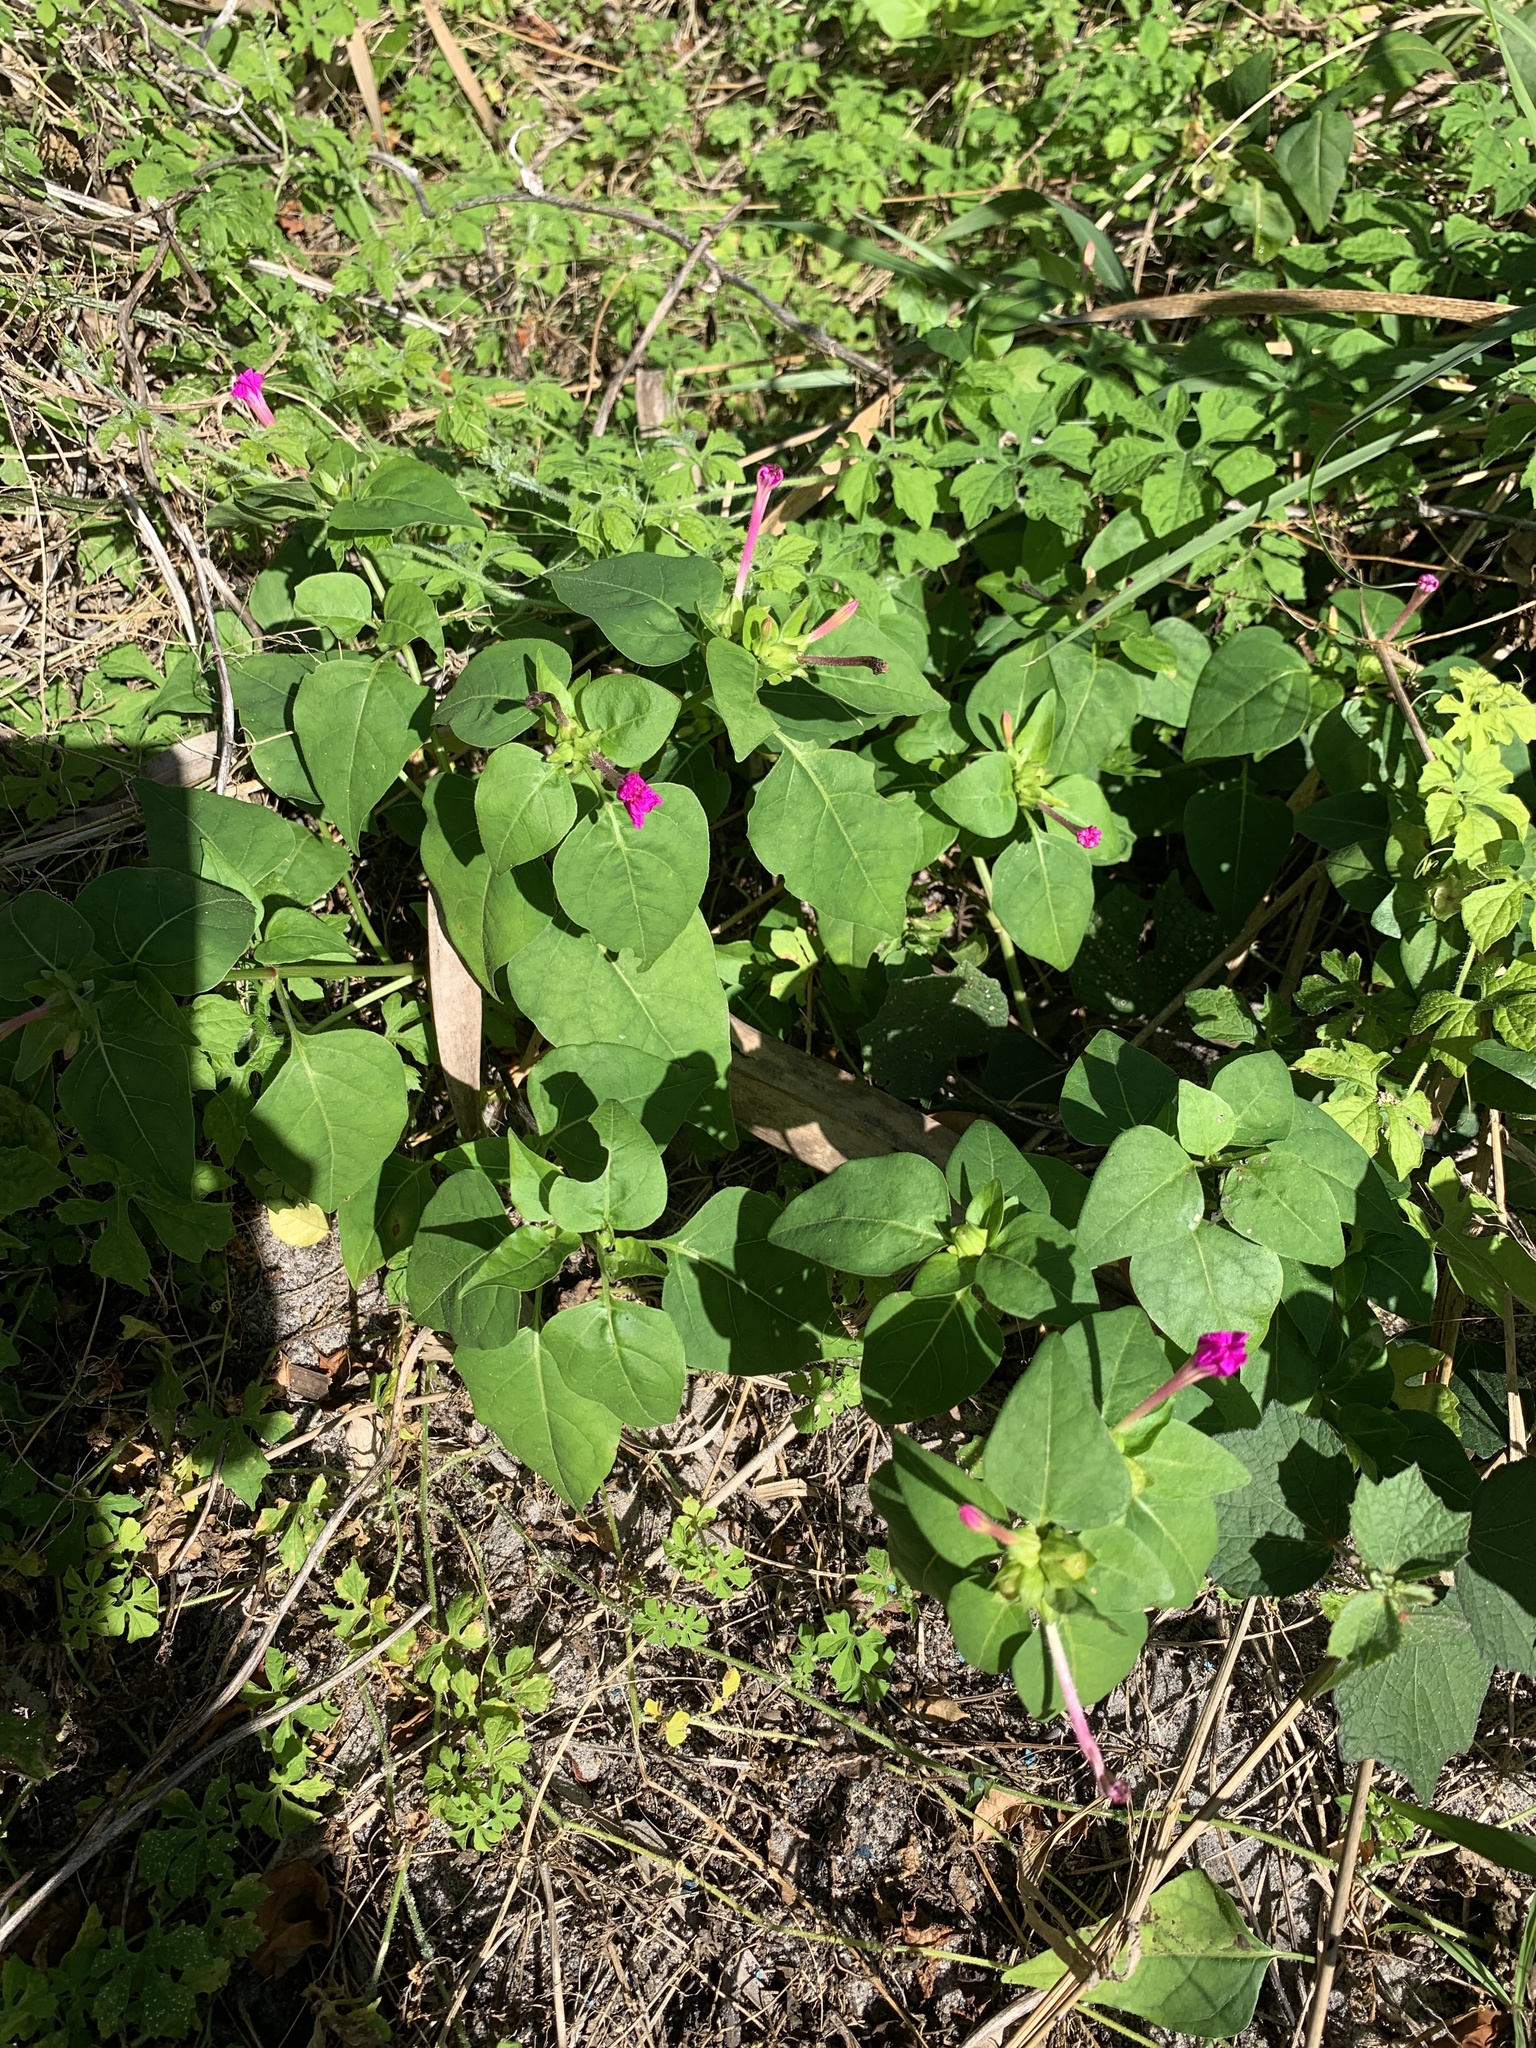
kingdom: Plantae
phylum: Tracheophyta
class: Magnoliopsida
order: Caryophyllales
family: Nyctaginaceae
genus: Mirabilis
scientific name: Mirabilis jalapa
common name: Marvel-of-peru
